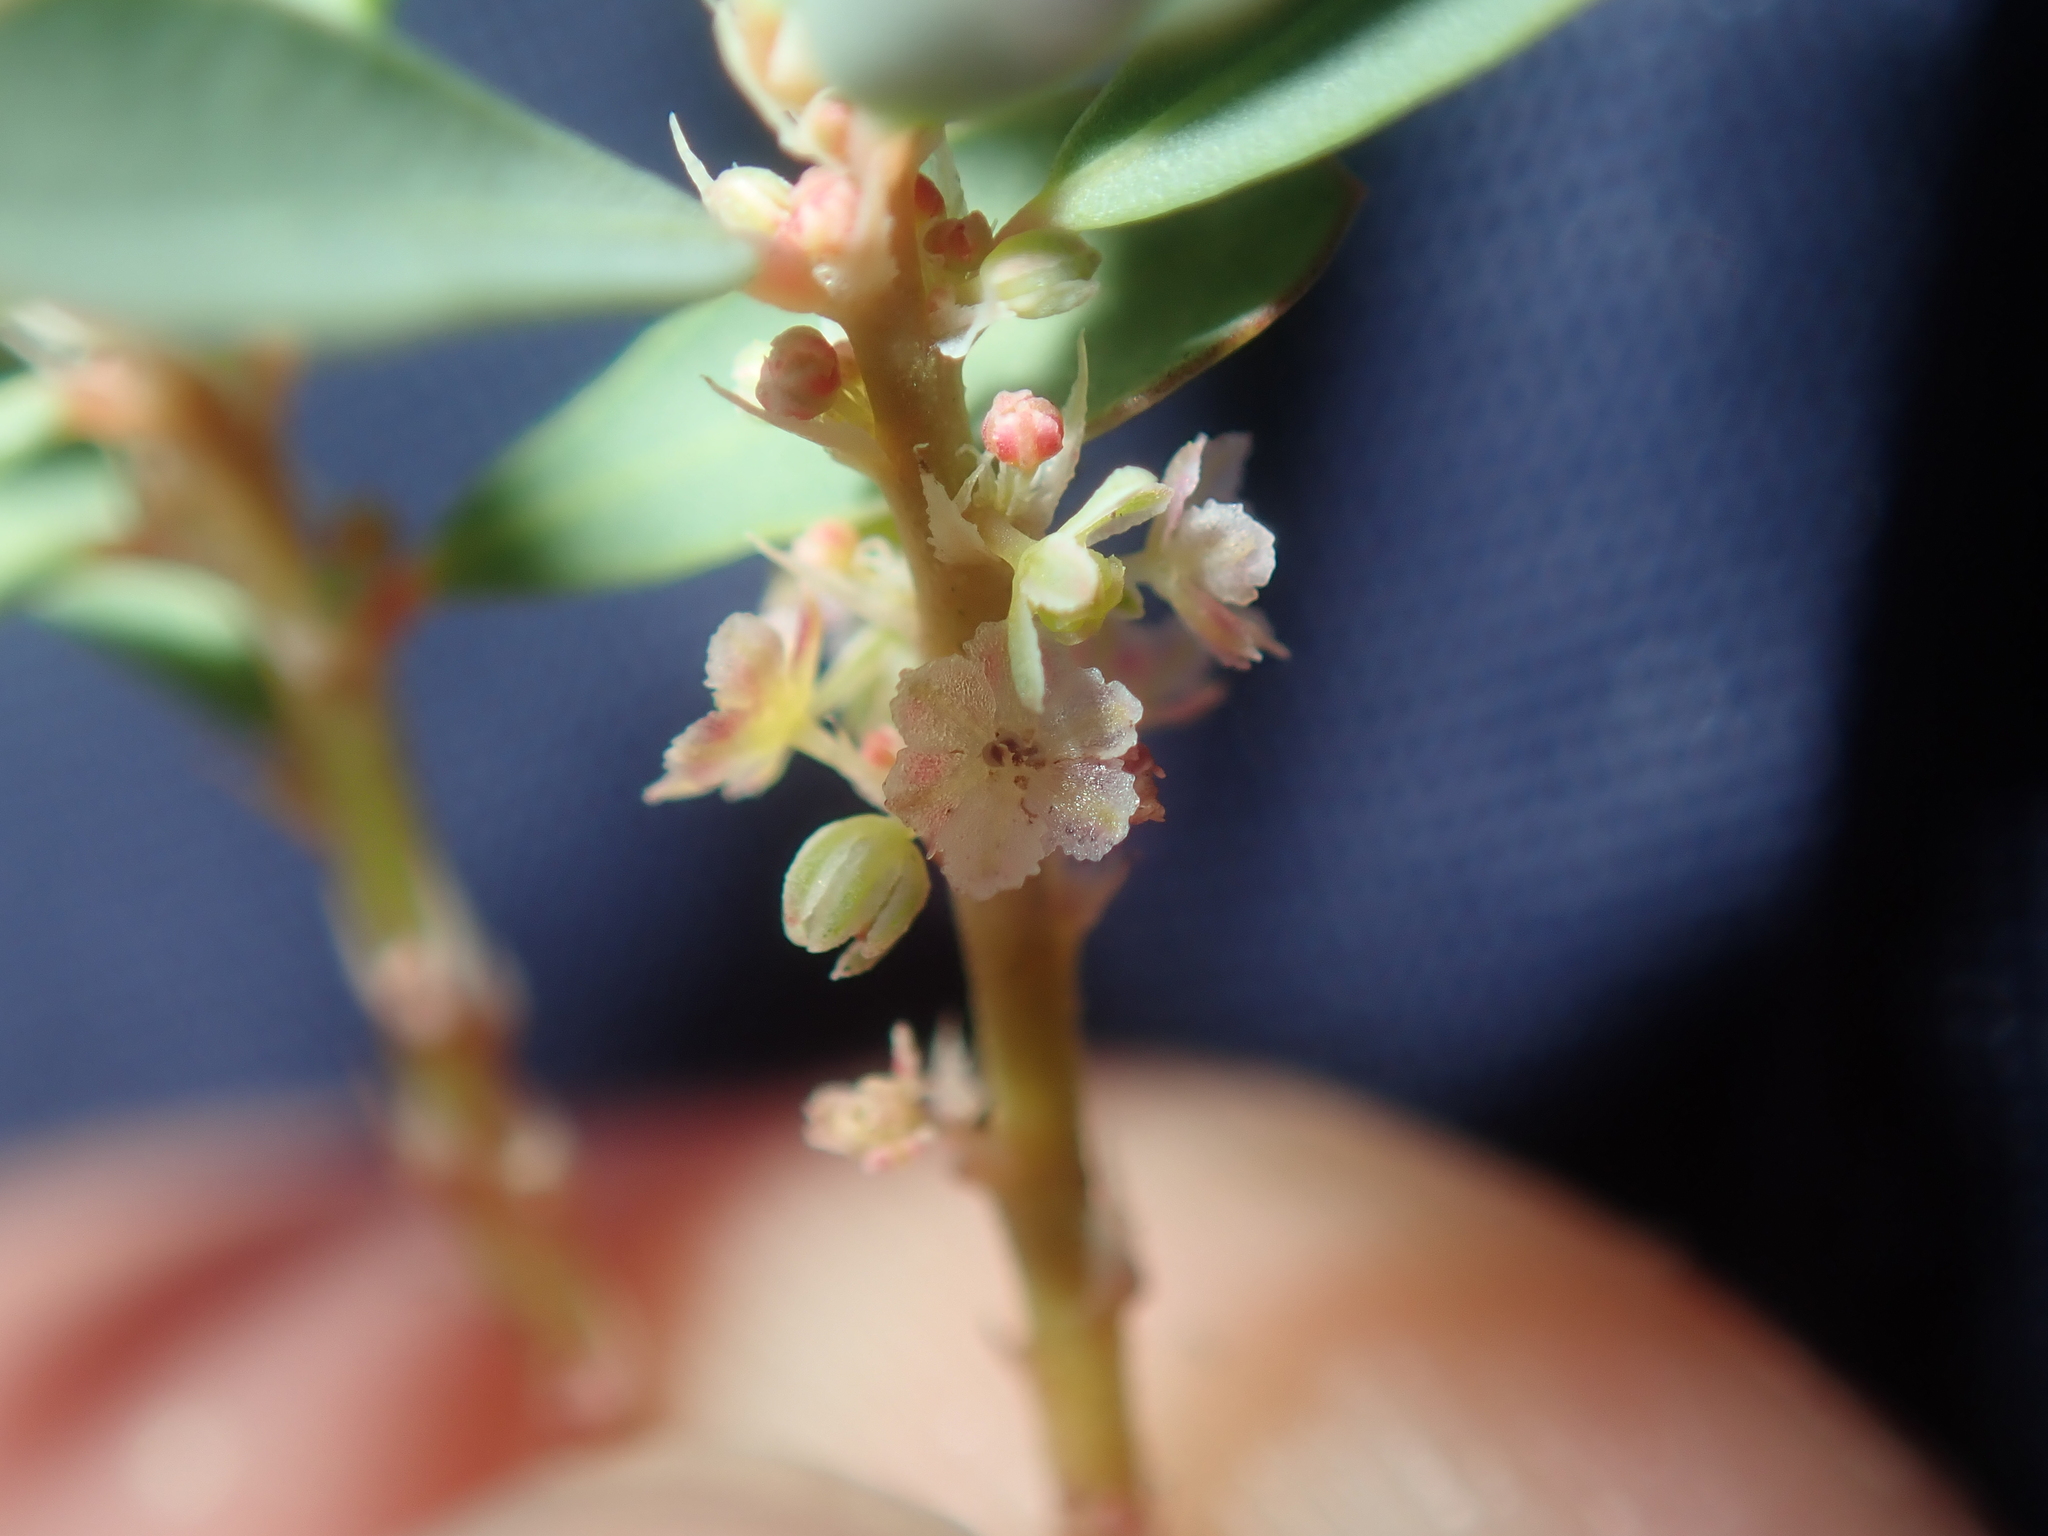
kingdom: Plantae
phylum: Tracheophyta
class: Magnoliopsida
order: Malpighiales
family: Phyllanthaceae
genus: Phyllanthus
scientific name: Phyllanthus erwinii
